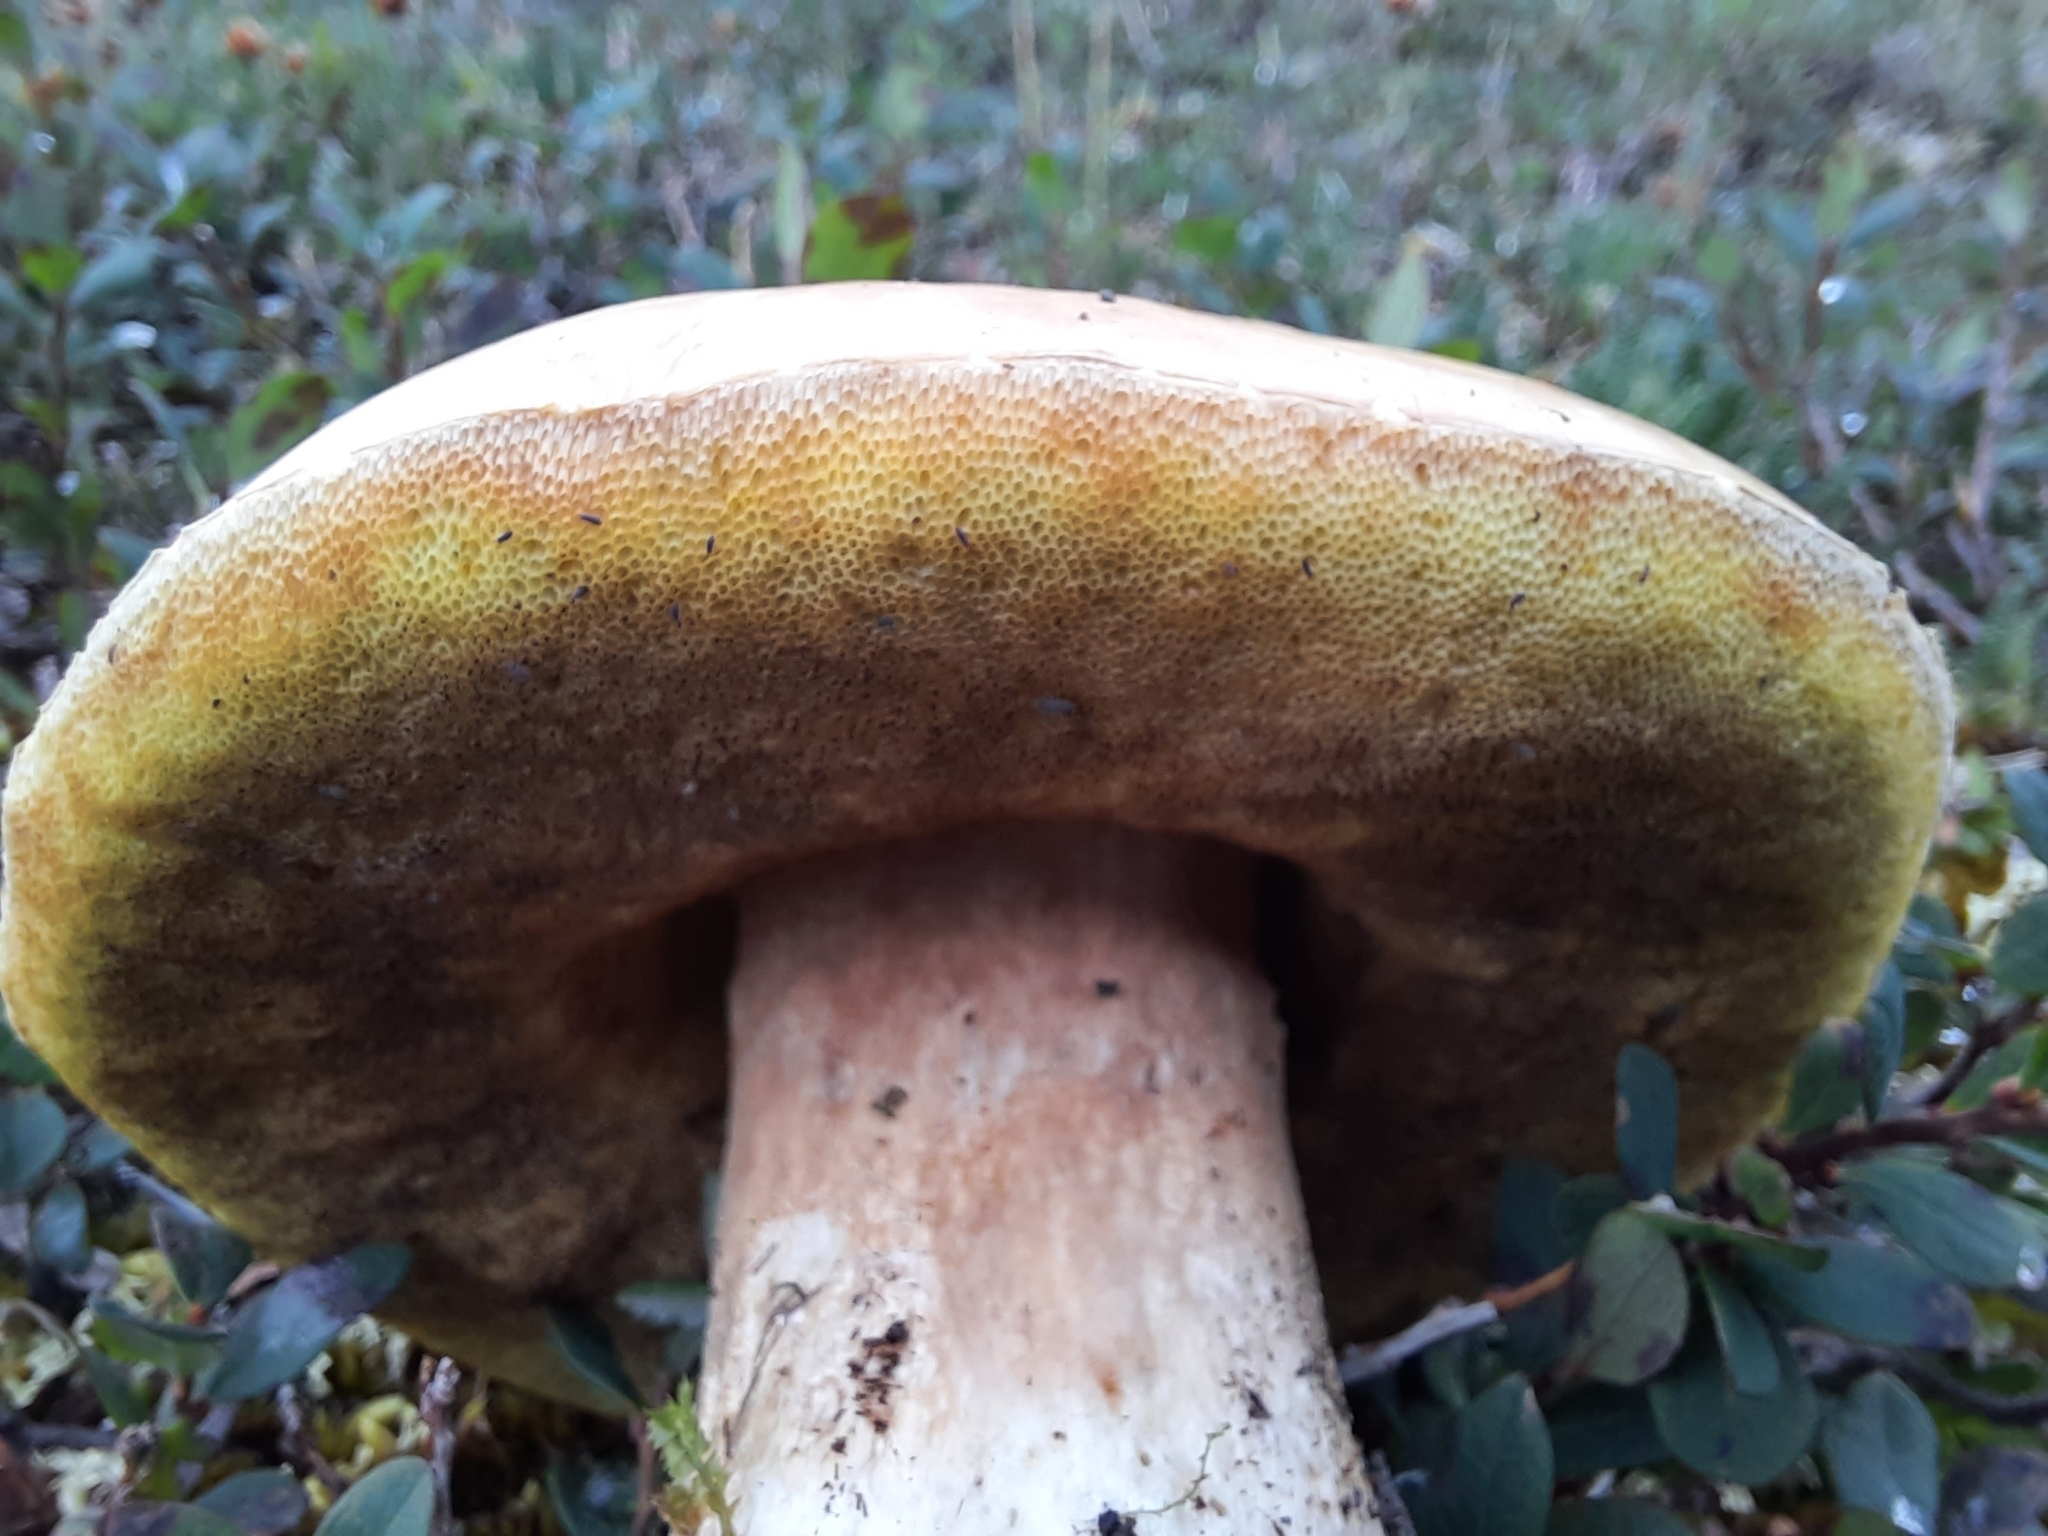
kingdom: Fungi
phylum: Basidiomycota
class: Agaricomycetes
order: Boletales
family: Boletaceae
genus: Boletus
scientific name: Boletus edulis
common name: Cep
